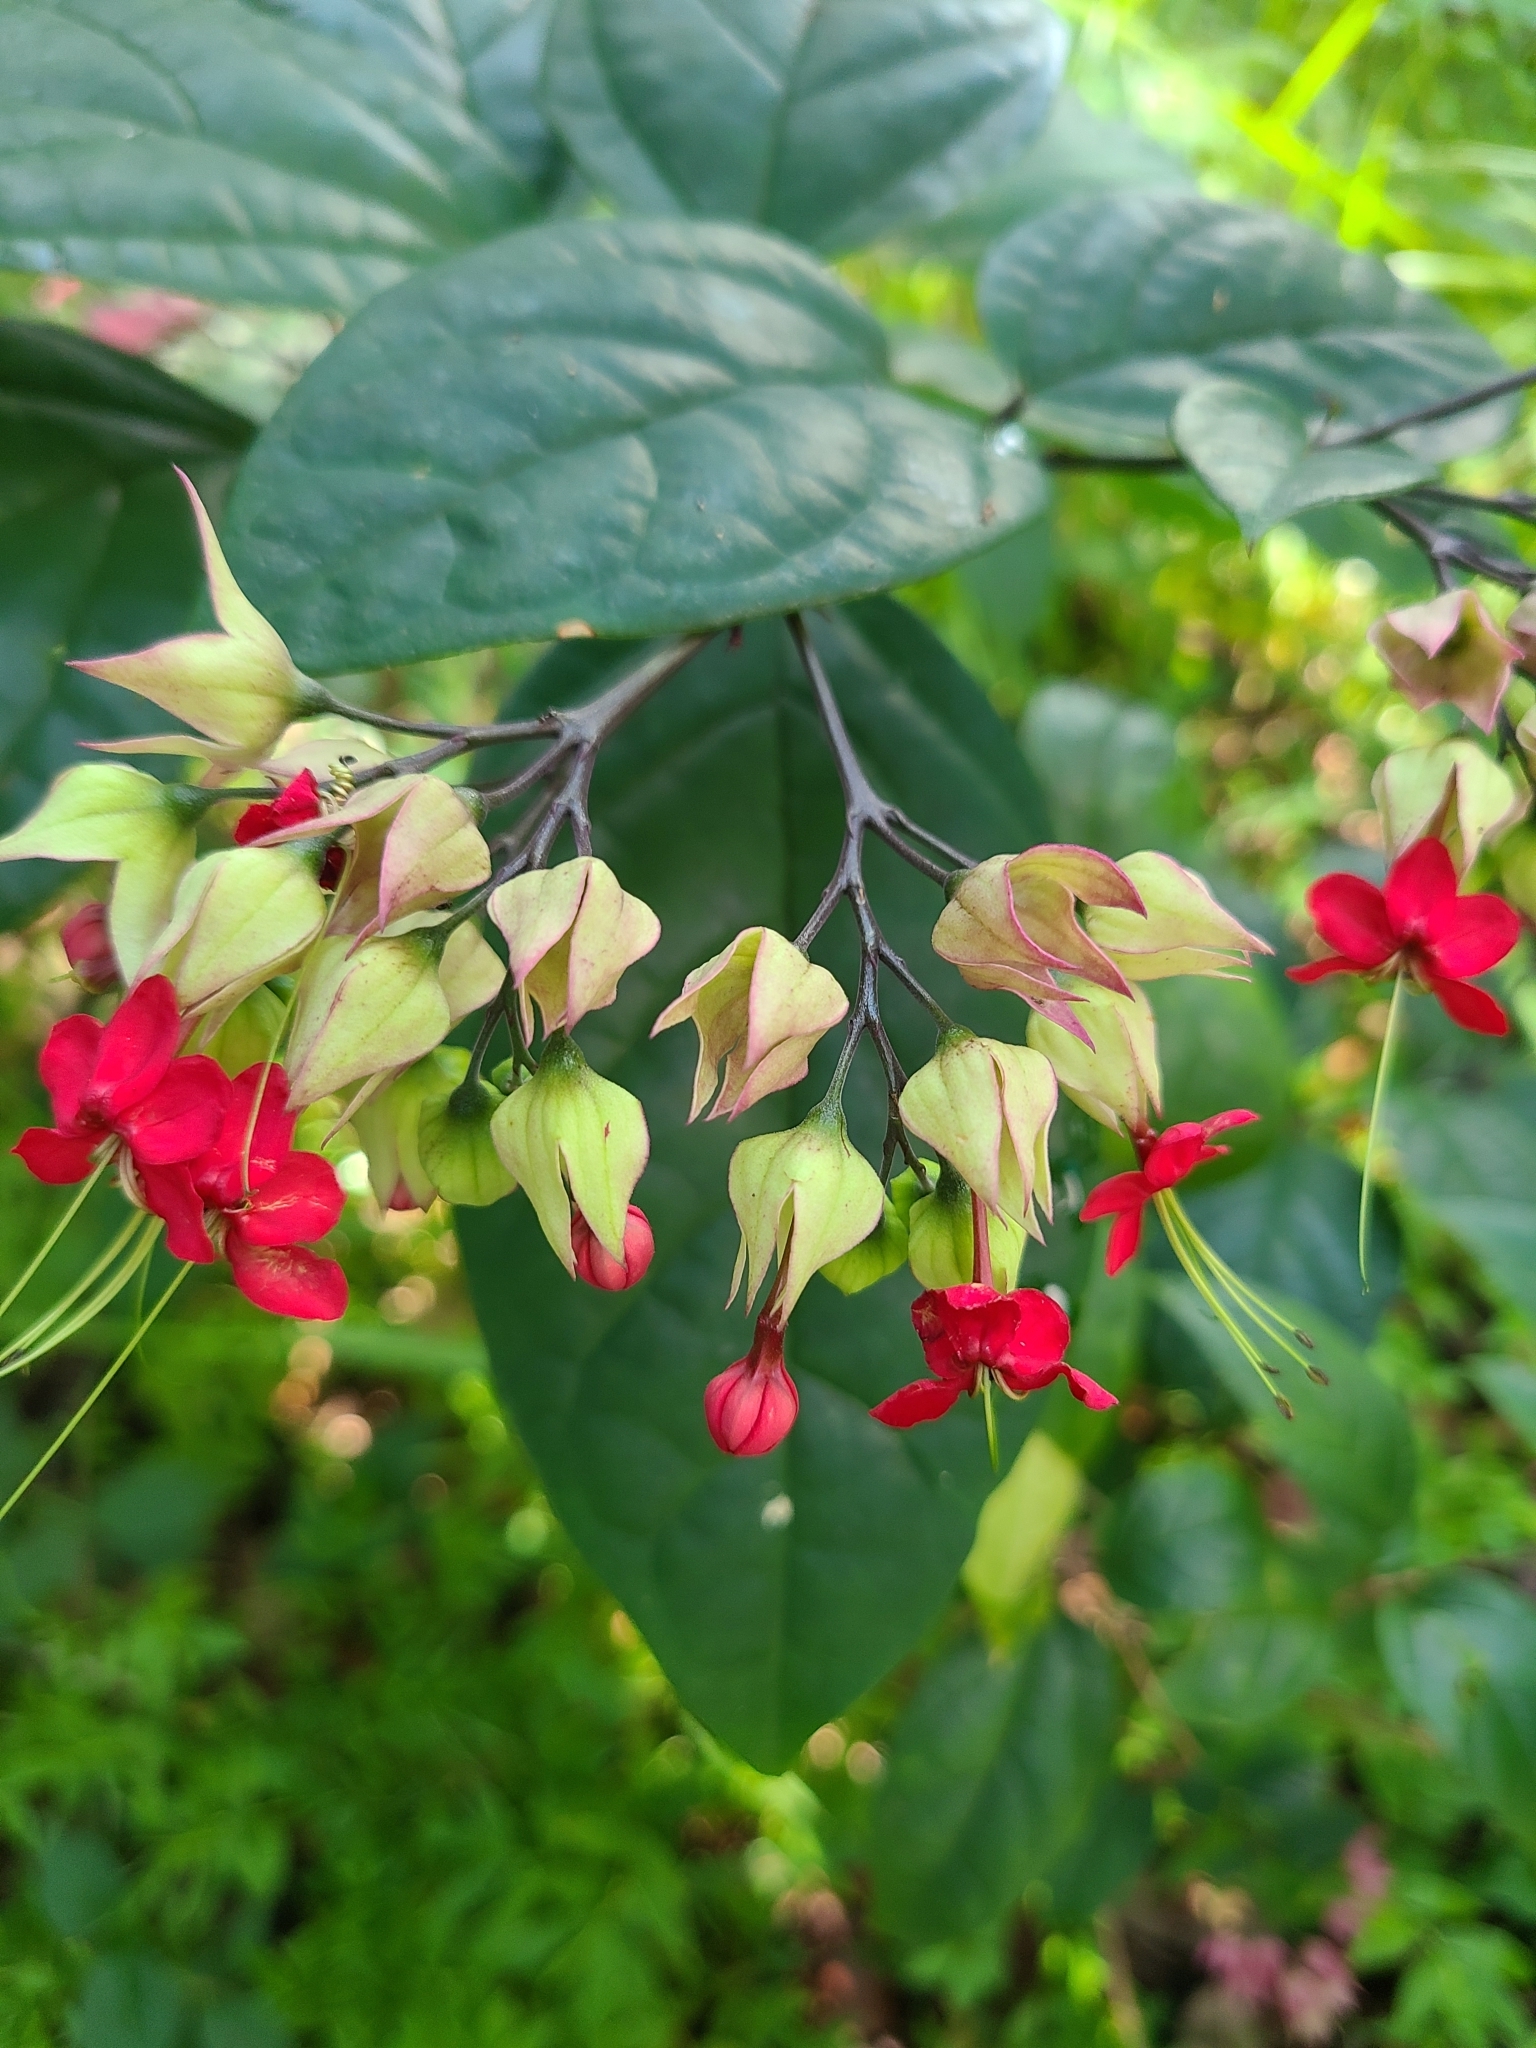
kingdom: Plantae
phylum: Tracheophyta
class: Magnoliopsida
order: Lamiales
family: Lamiaceae
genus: Clerodendrum
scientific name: Clerodendrum speciosum
